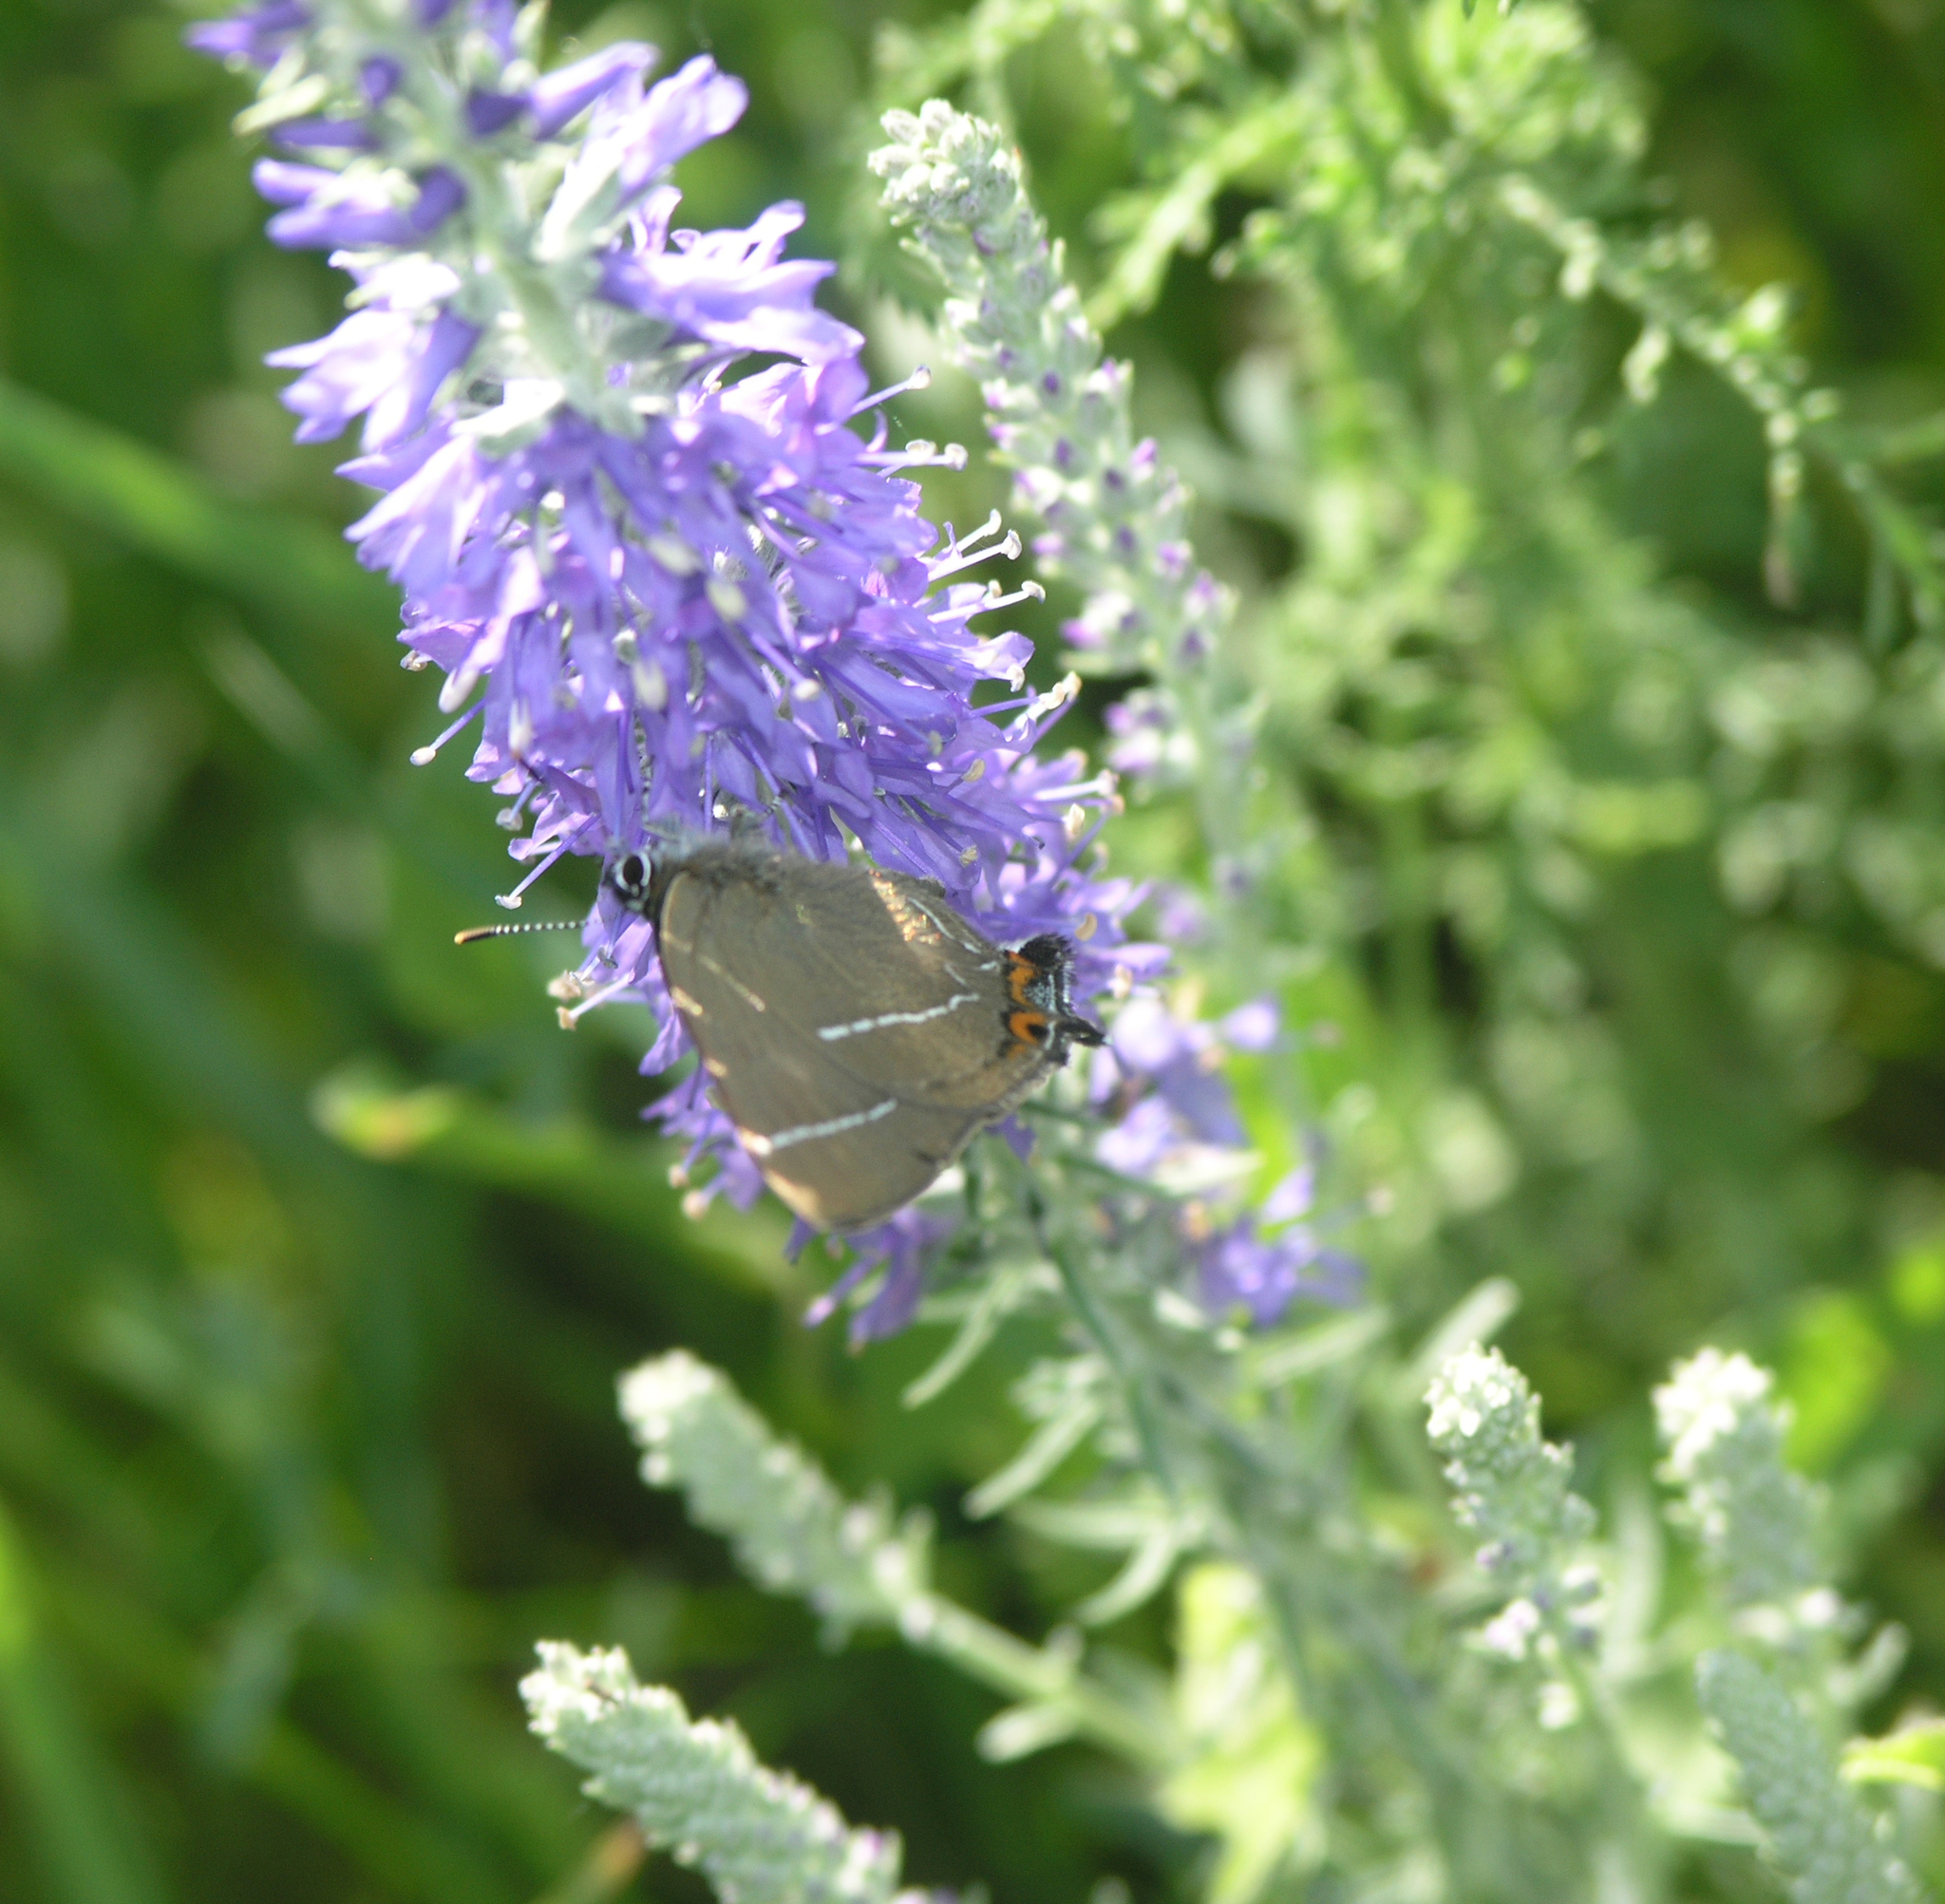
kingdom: Animalia
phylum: Arthropoda
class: Insecta
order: Lepidoptera
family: Lycaenidae
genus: Satyrium
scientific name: Satyrium w-album
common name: White-letter hairstreak
